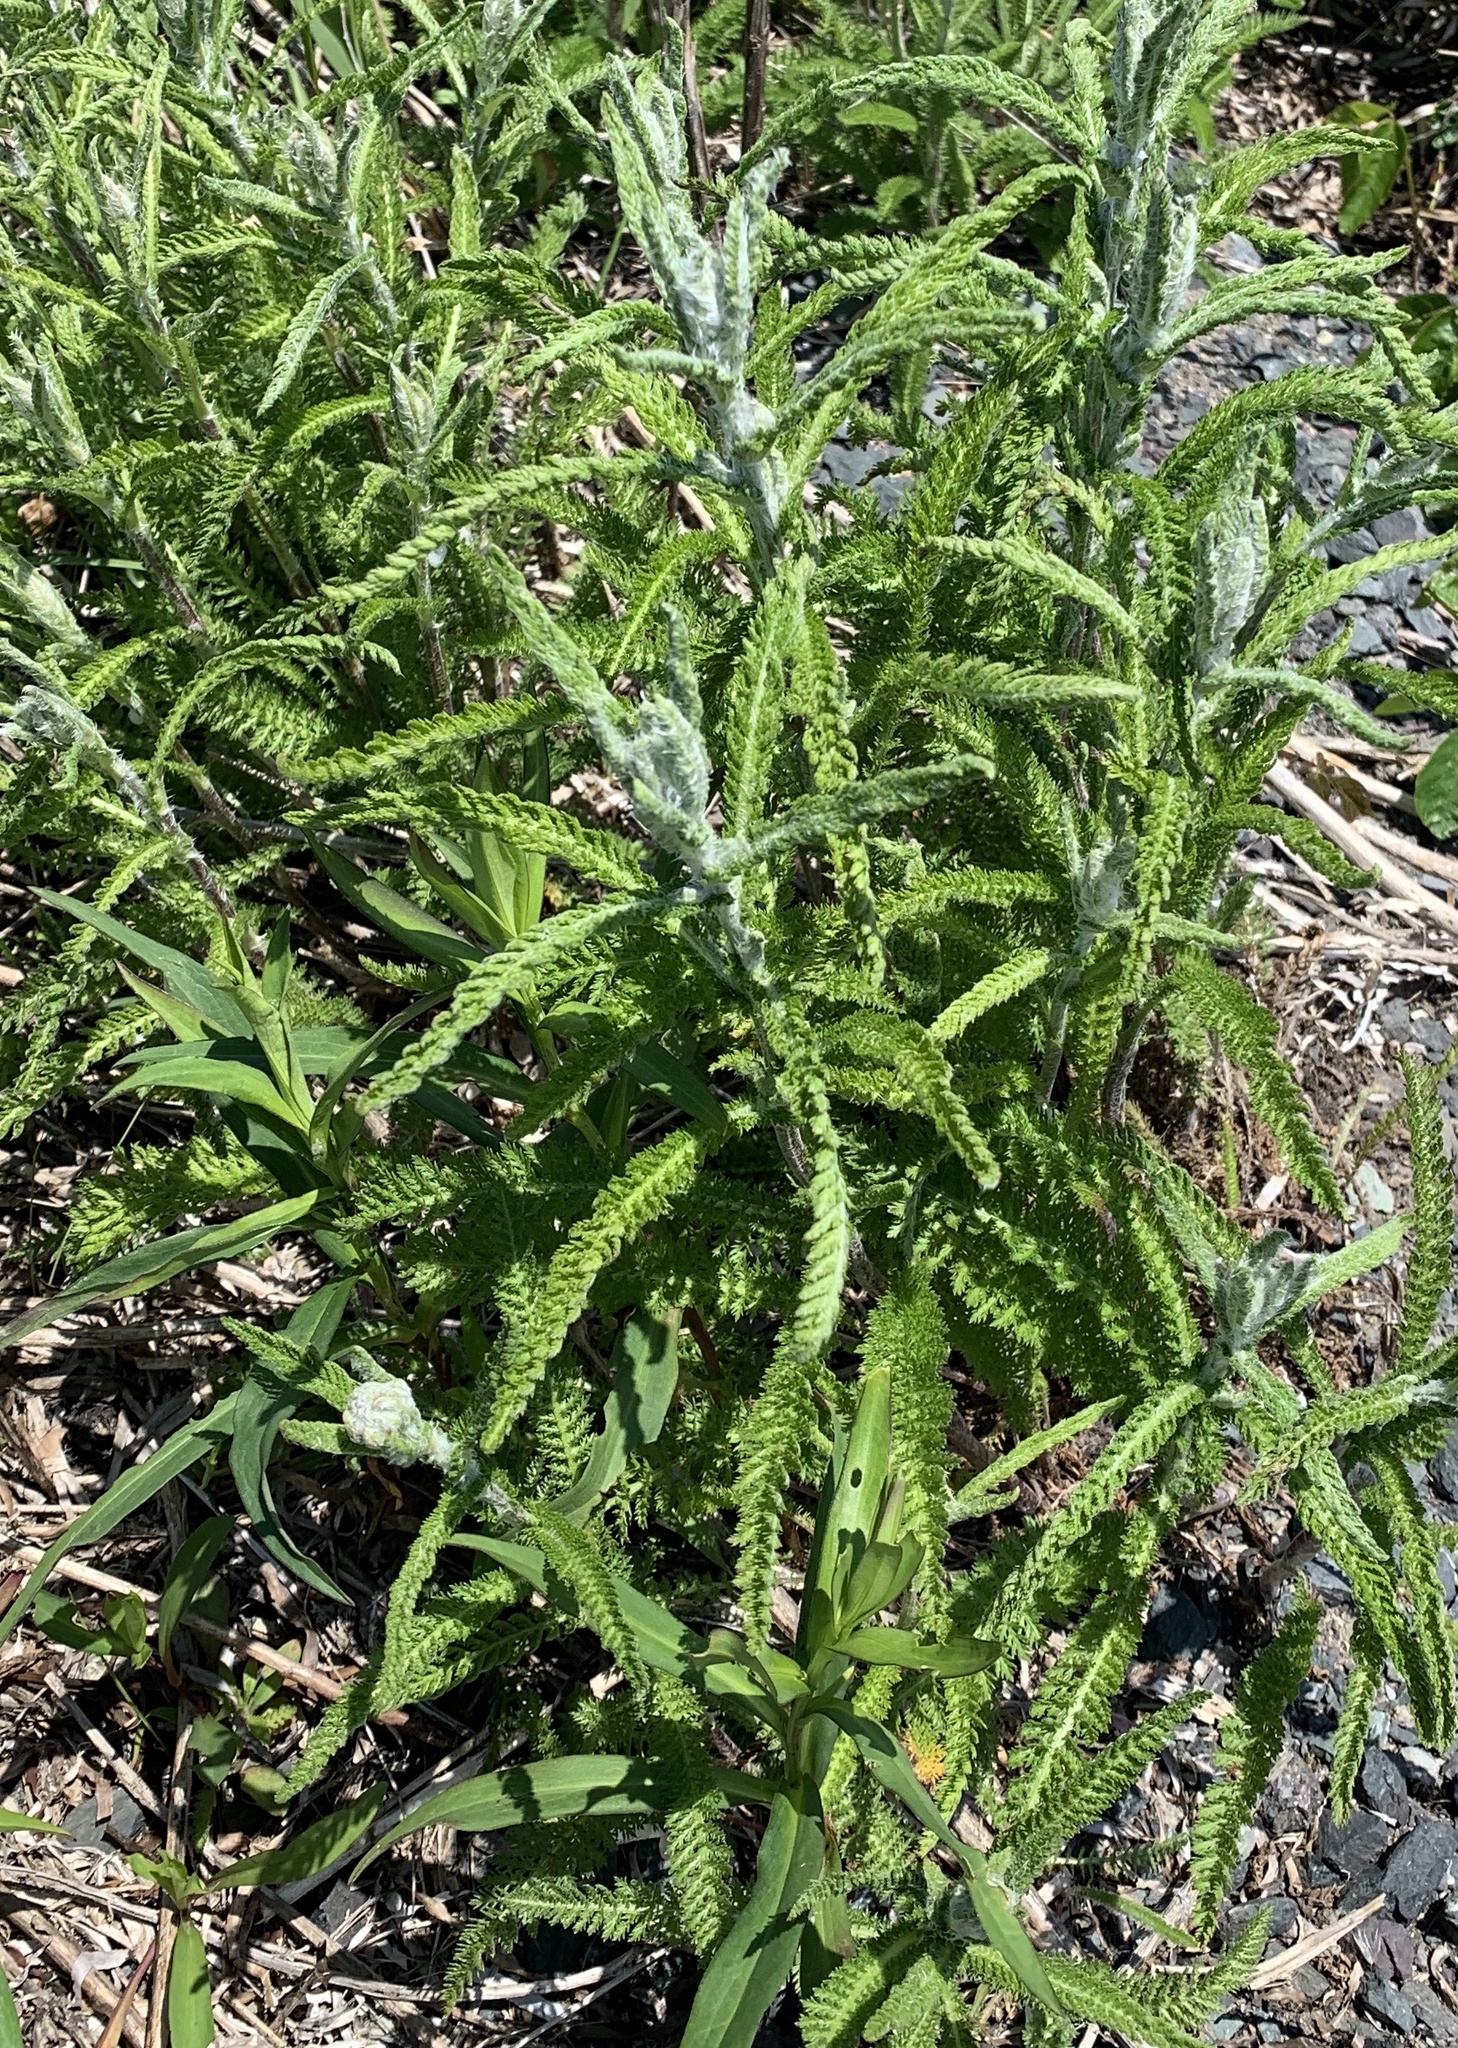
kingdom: Plantae
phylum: Tracheophyta
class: Magnoliopsida
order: Asterales
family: Asteraceae
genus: Achillea
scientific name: Achillea millefolium
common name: Yarrow
